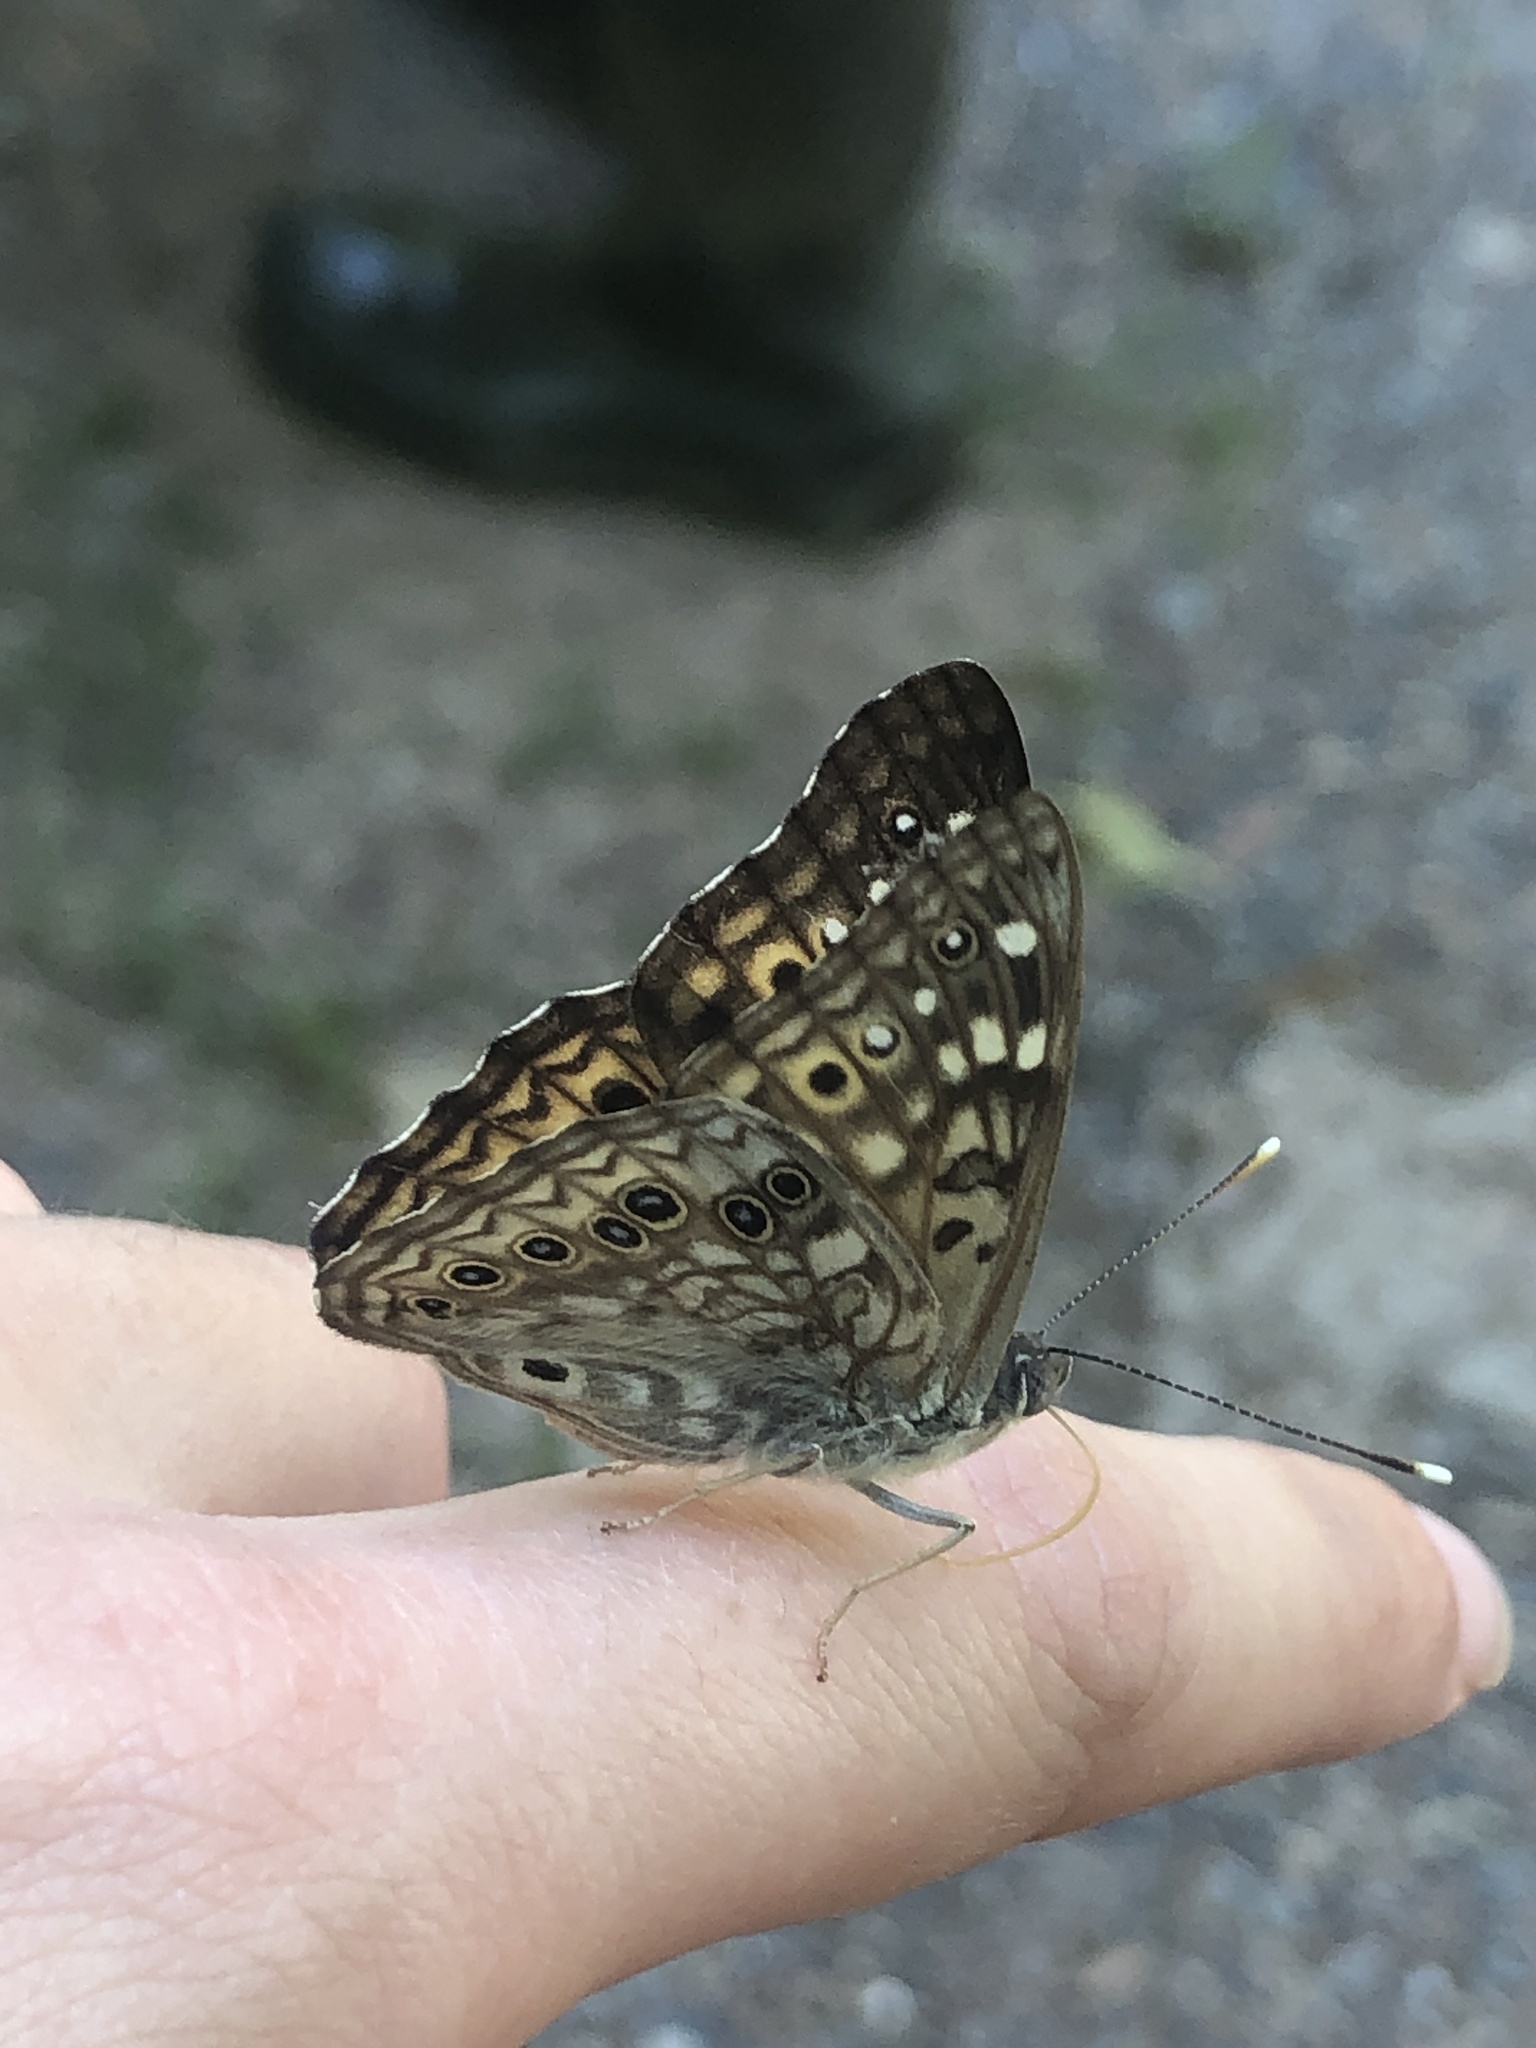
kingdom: Animalia
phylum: Arthropoda
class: Insecta
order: Lepidoptera
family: Nymphalidae
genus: Asterocampa
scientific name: Asterocampa celtis
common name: Hackberry emperor
